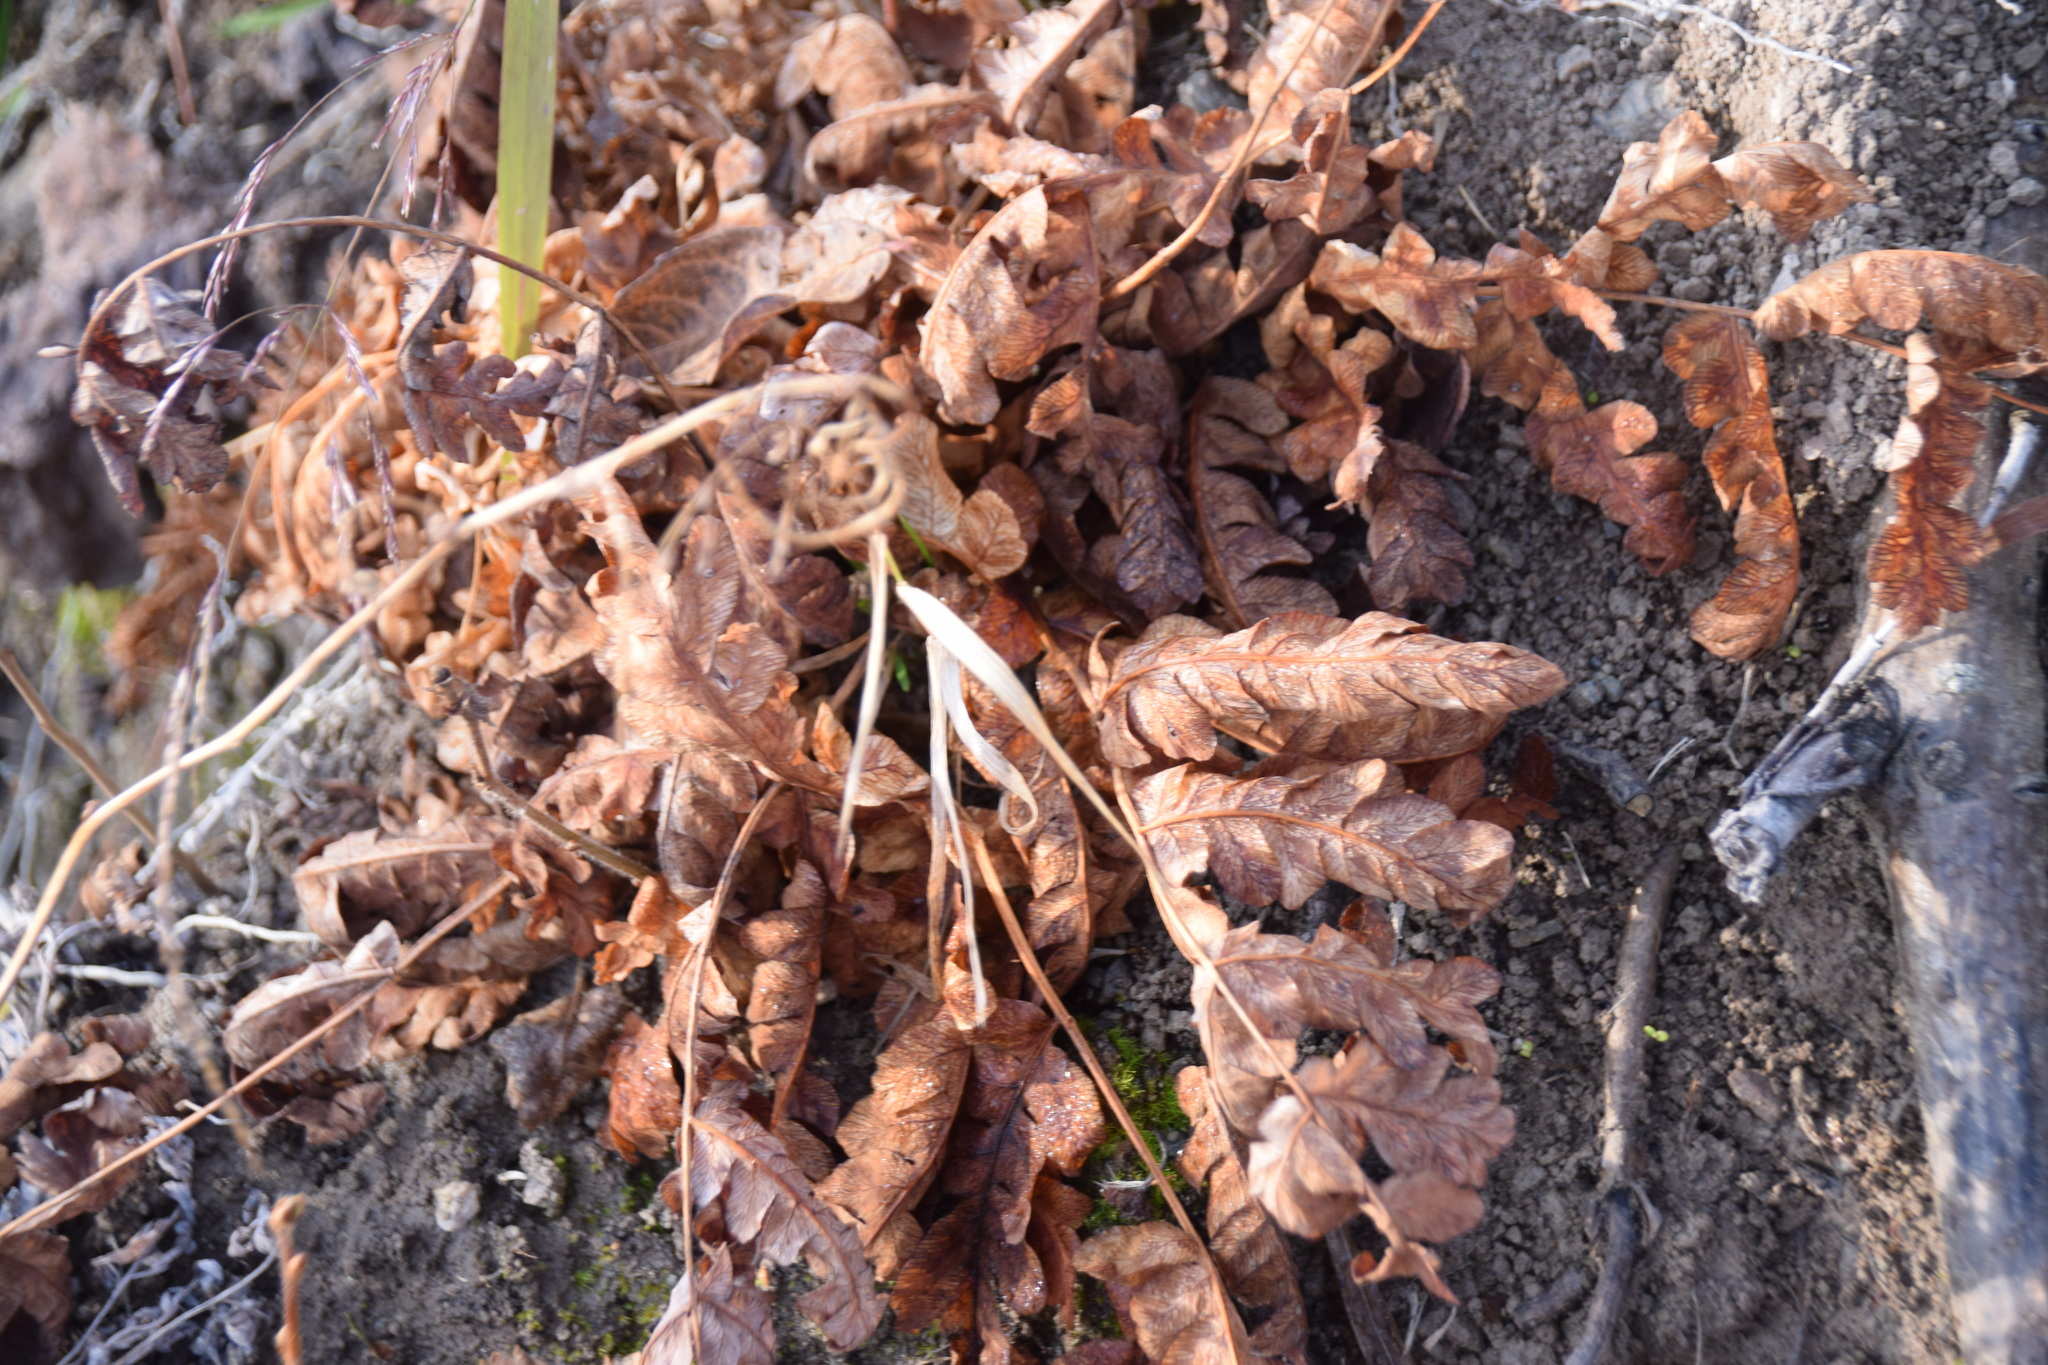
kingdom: Plantae
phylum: Tracheophyta
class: Polypodiopsida
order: Polypodiales
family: Onocleaceae
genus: Onoclea
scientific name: Onoclea sensibilis
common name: Sensitive fern
